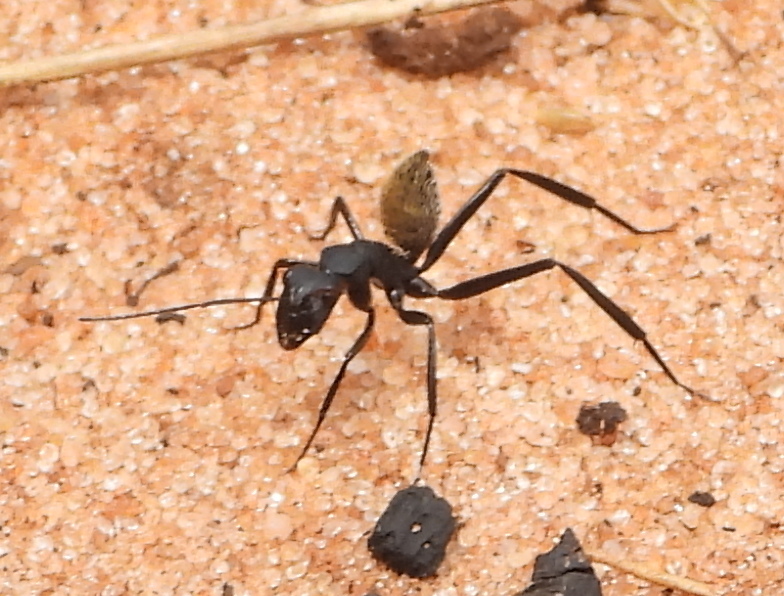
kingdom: Animalia
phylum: Arthropoda
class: Insecta
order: Hymenoptera
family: Formicidae
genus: Camponotus
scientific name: Camponotus fulvopilosus
